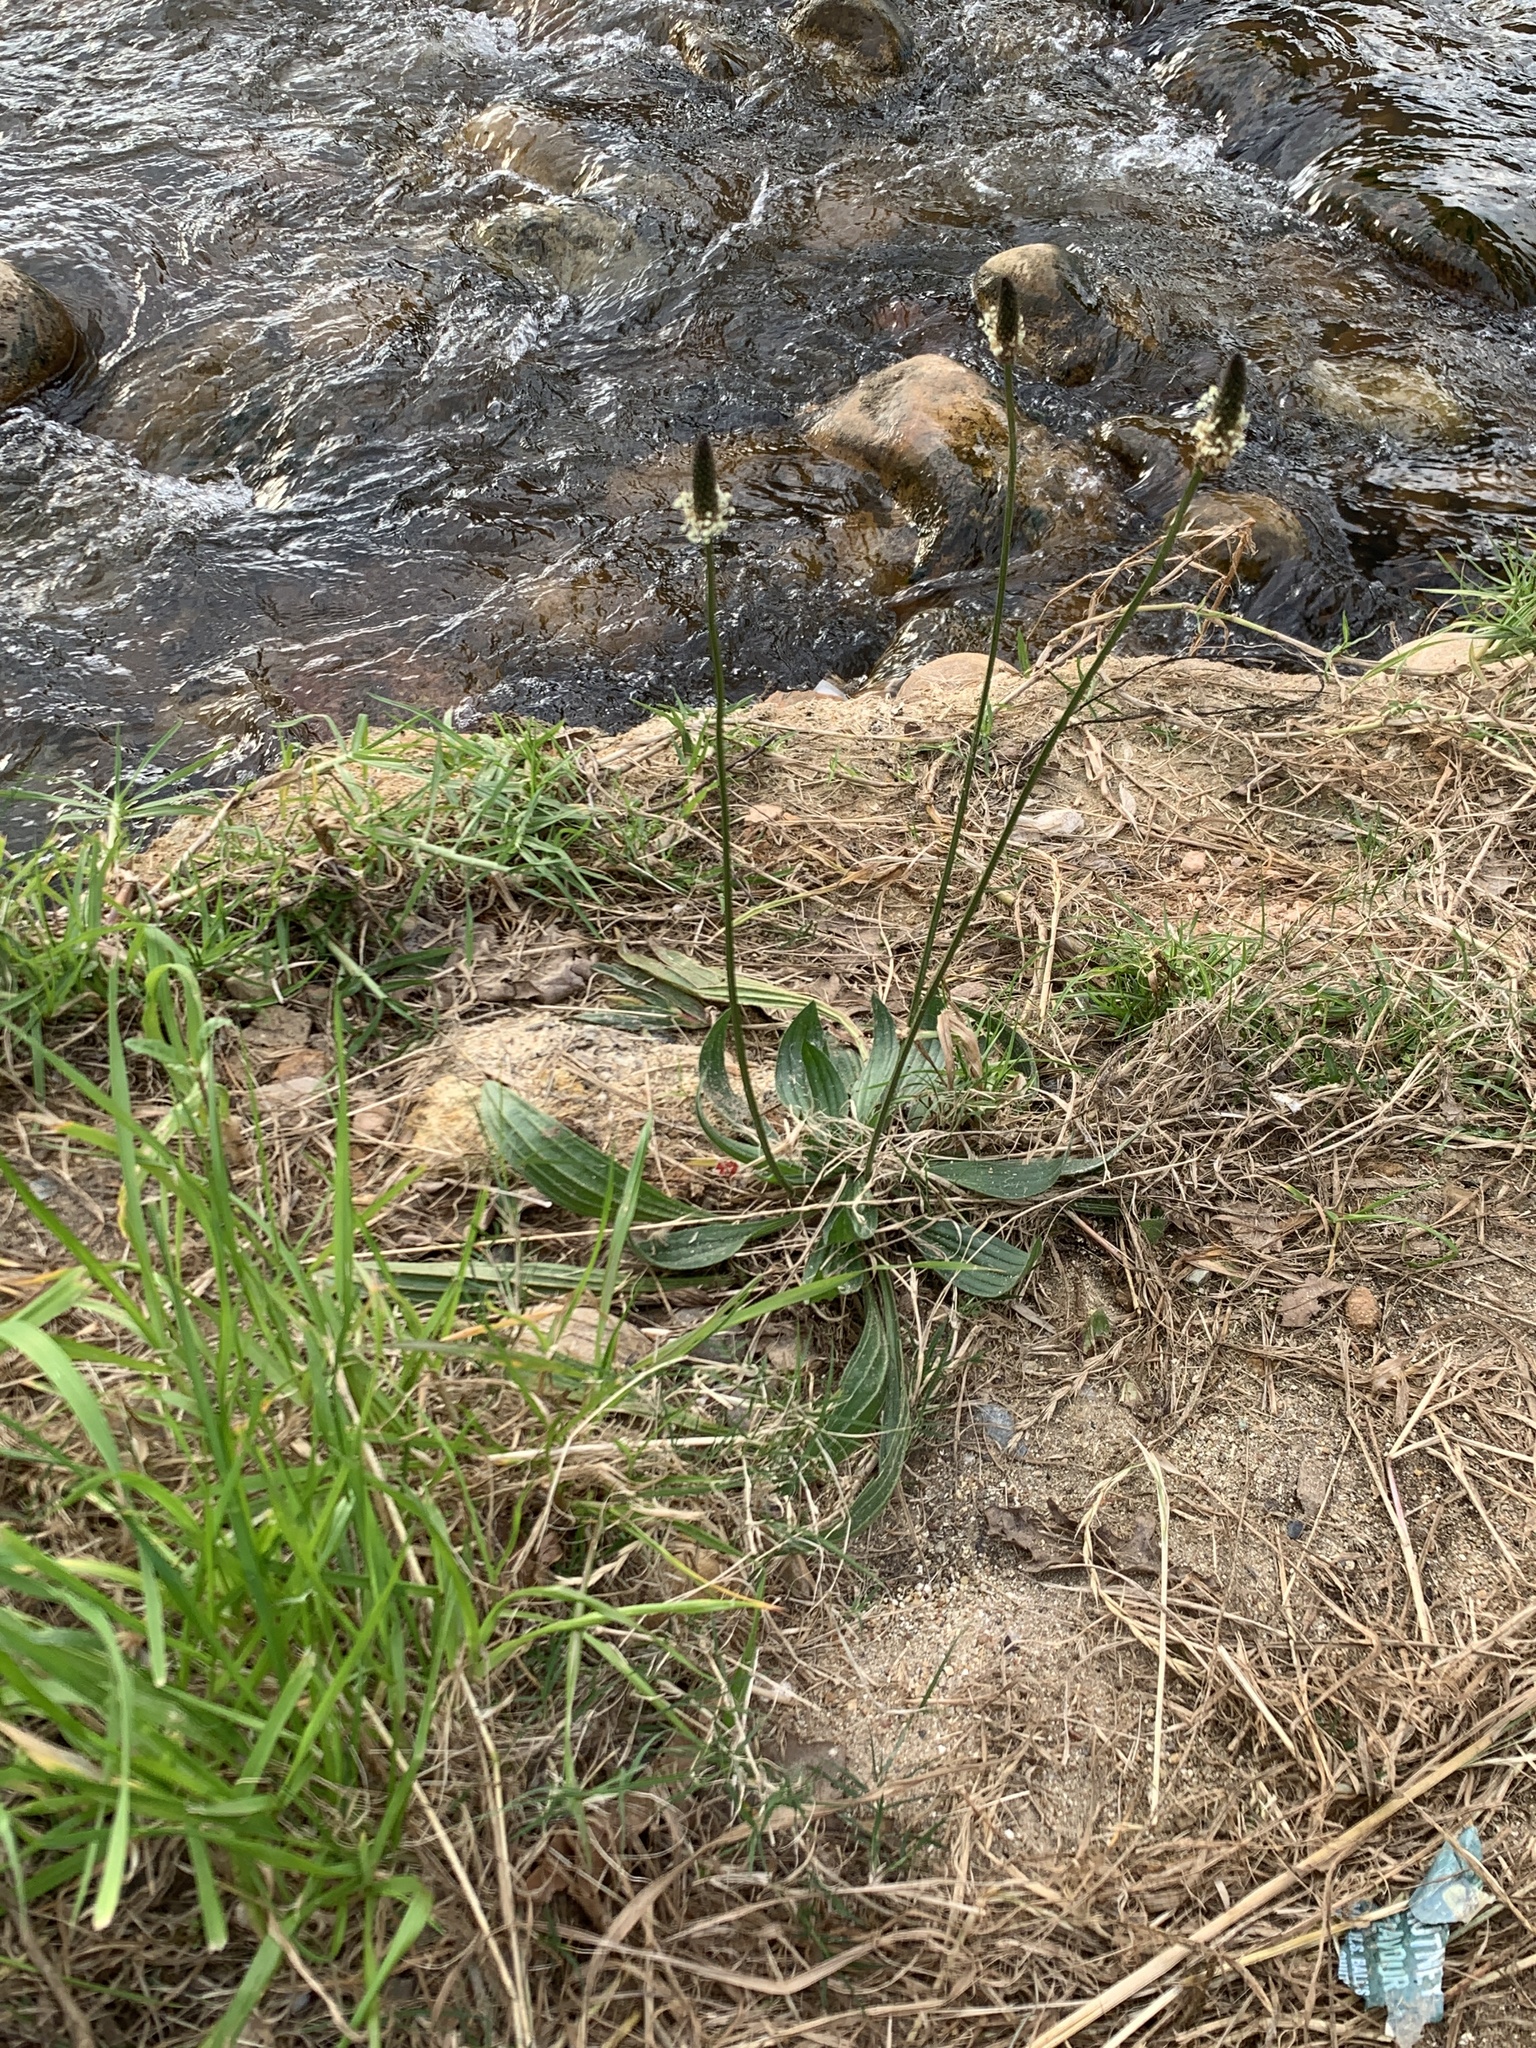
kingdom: Plantae
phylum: Tracheophyta
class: Magnoliopsida
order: Lamiales
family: Plantaginaceae
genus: Plantago
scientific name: Plantago lanceolata
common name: Ribwort plantain
